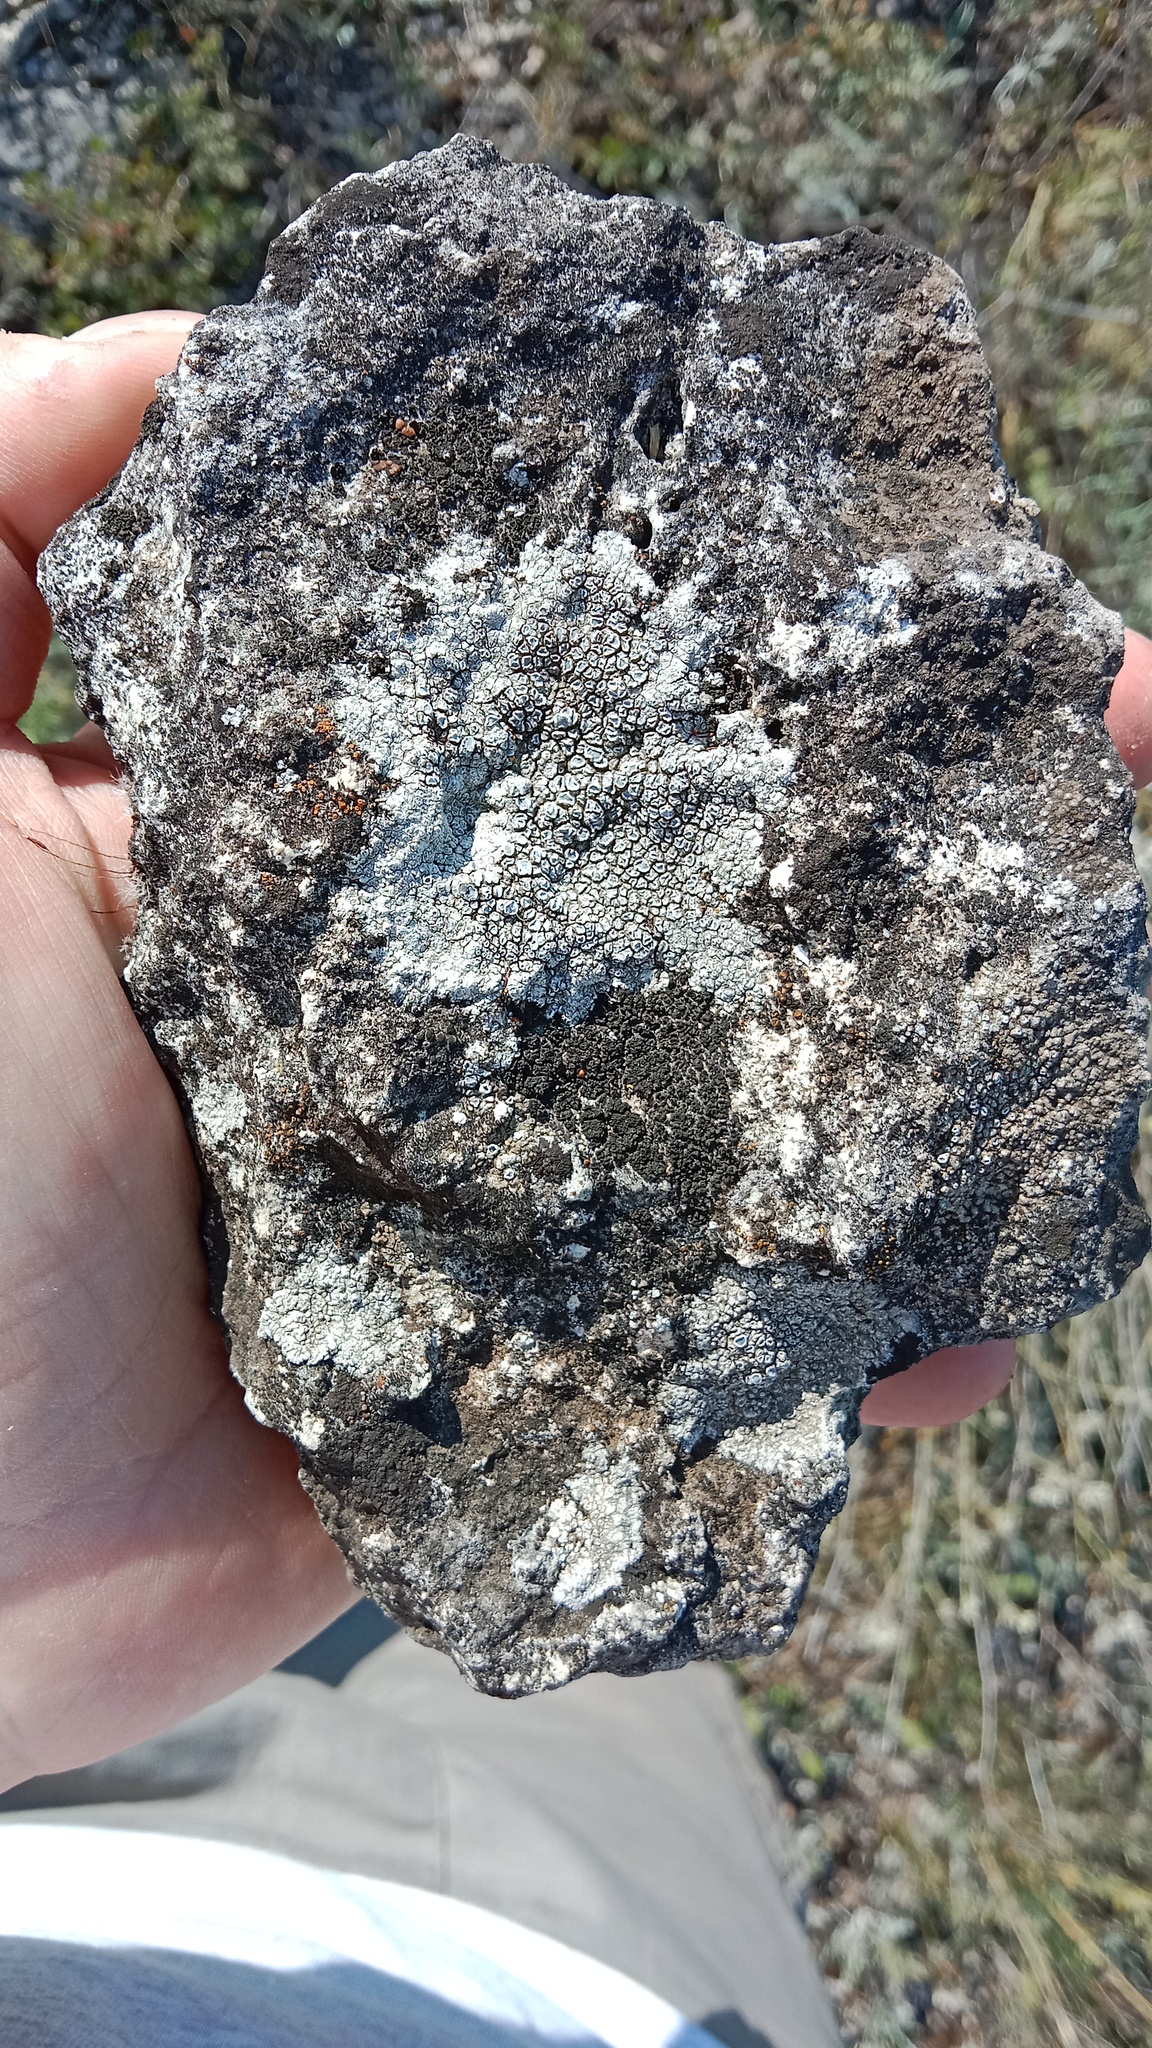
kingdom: Fungi
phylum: Ascomycota
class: Lecanoromycetes
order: Pertusariales
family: Megasporaceae
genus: Circinaria
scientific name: Circinaria calcarea
